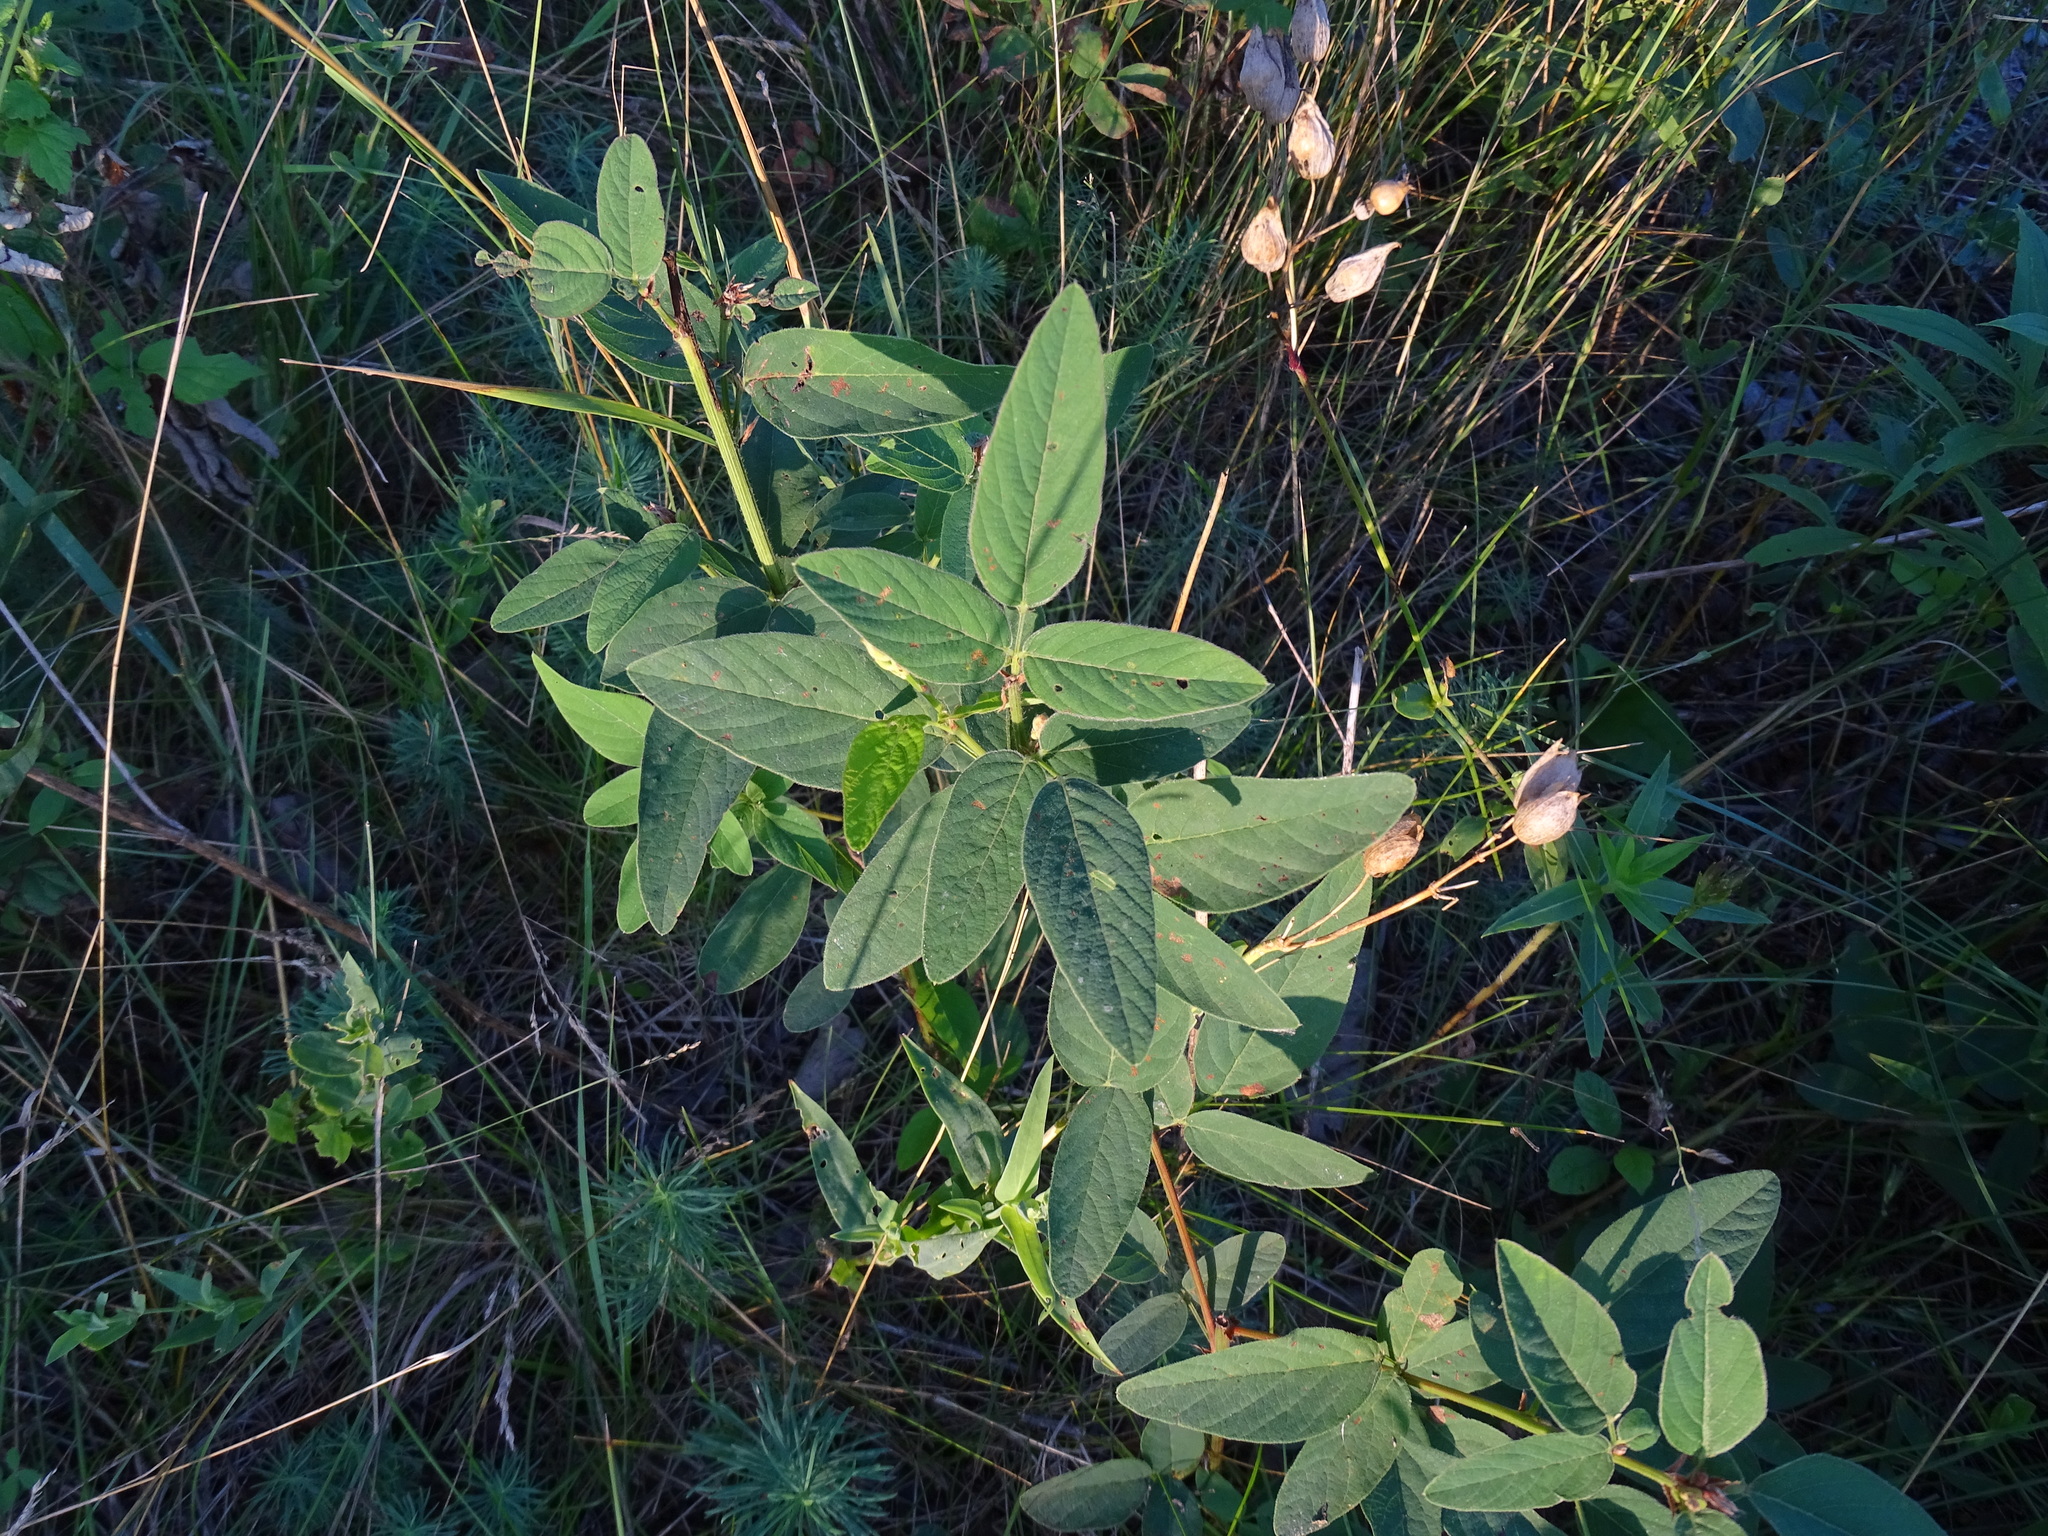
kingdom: Plantae
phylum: Tracheophyta
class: Magnoliopsida
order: Fabales
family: Fabaceae
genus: Desmodium
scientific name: Desmodium canadense
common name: Canada tick-trefoil
